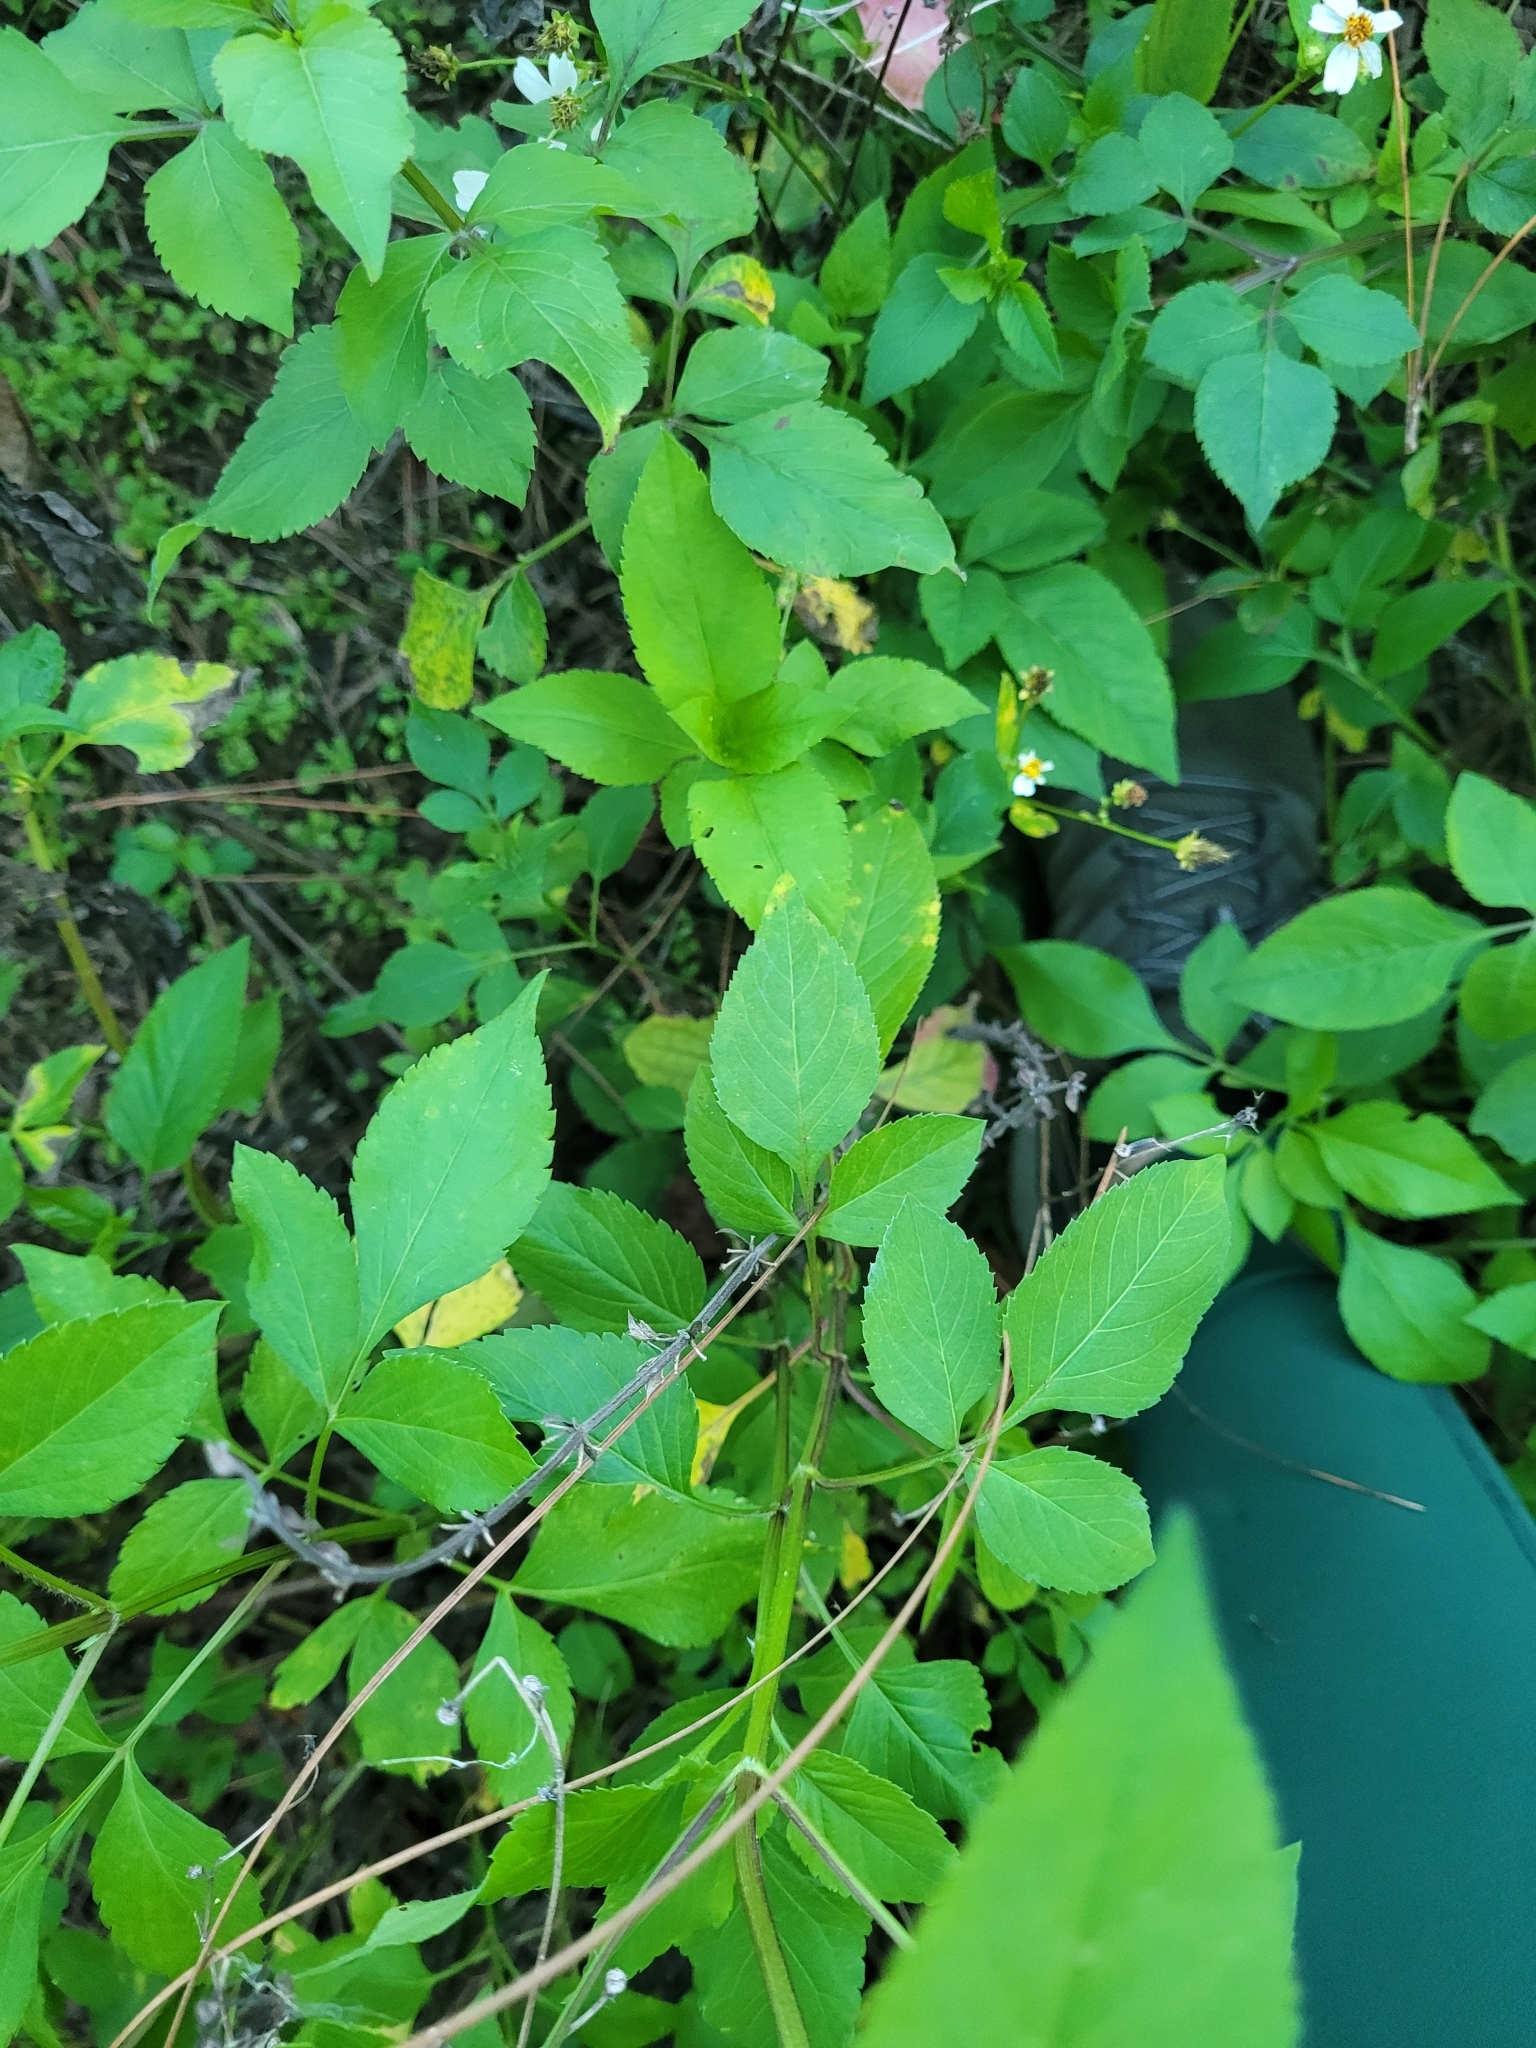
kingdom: Plantae
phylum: Tracheophyta
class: Magnoliopsida
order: Asterales
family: Asteraceae
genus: Bidens
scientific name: Bidens alba
